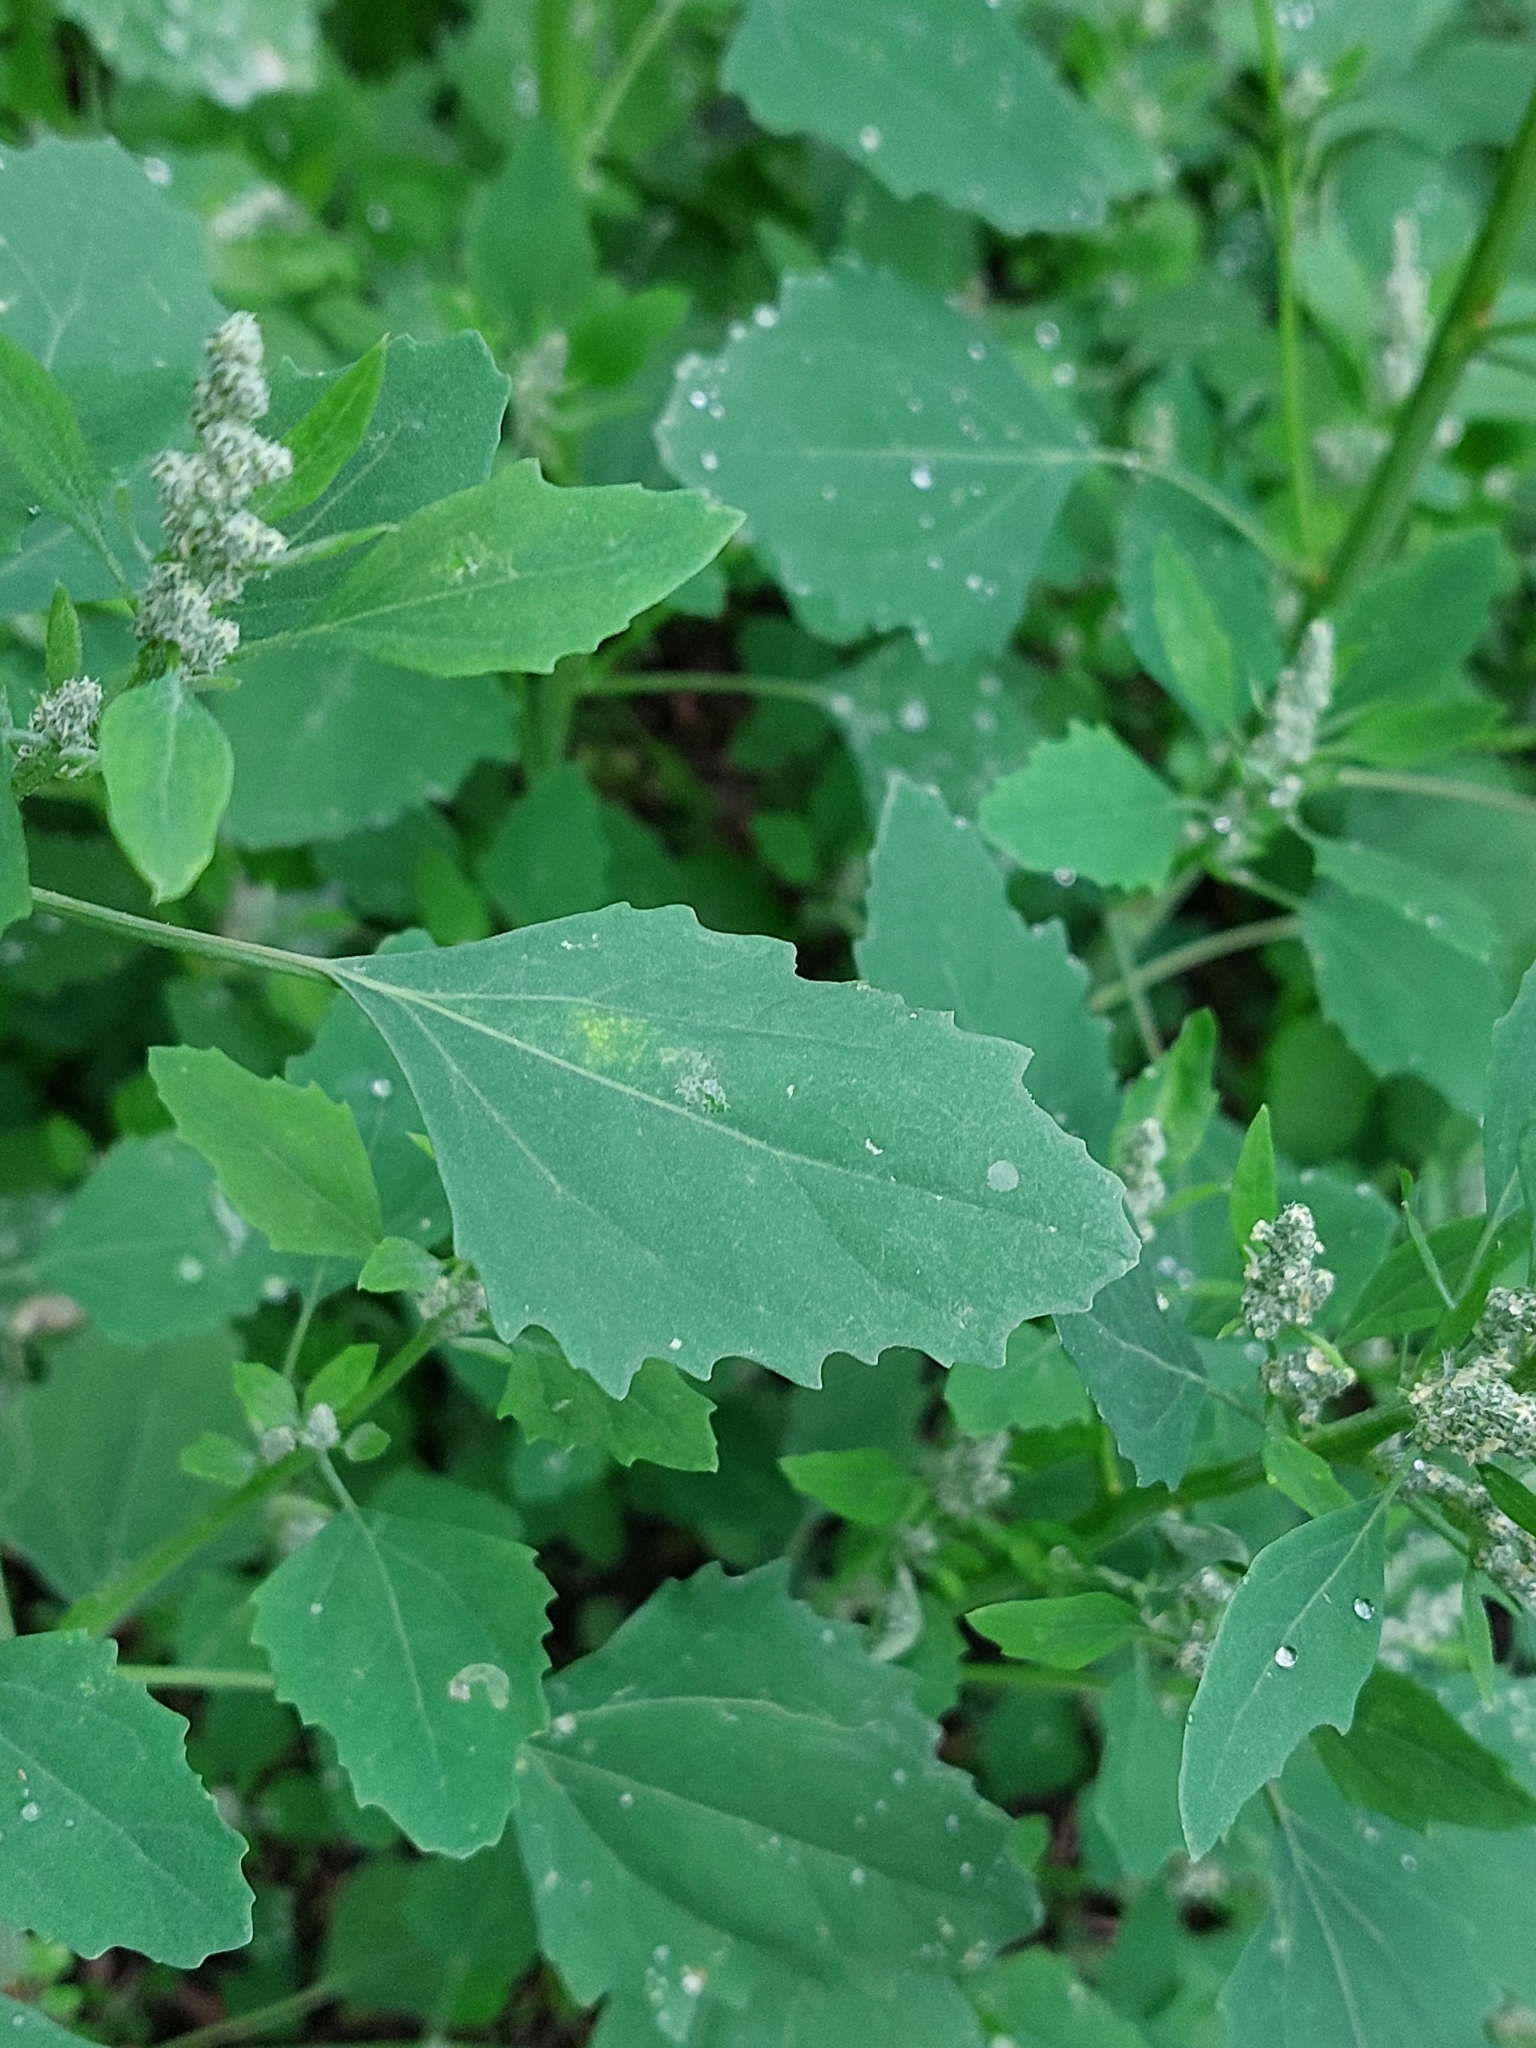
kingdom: Plantae
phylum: Tracheophyta
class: Magnoliopsida
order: Caryophyllales
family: Amaranthaceae
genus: Chenopodium
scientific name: Chenopodium album
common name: Fat-hen
